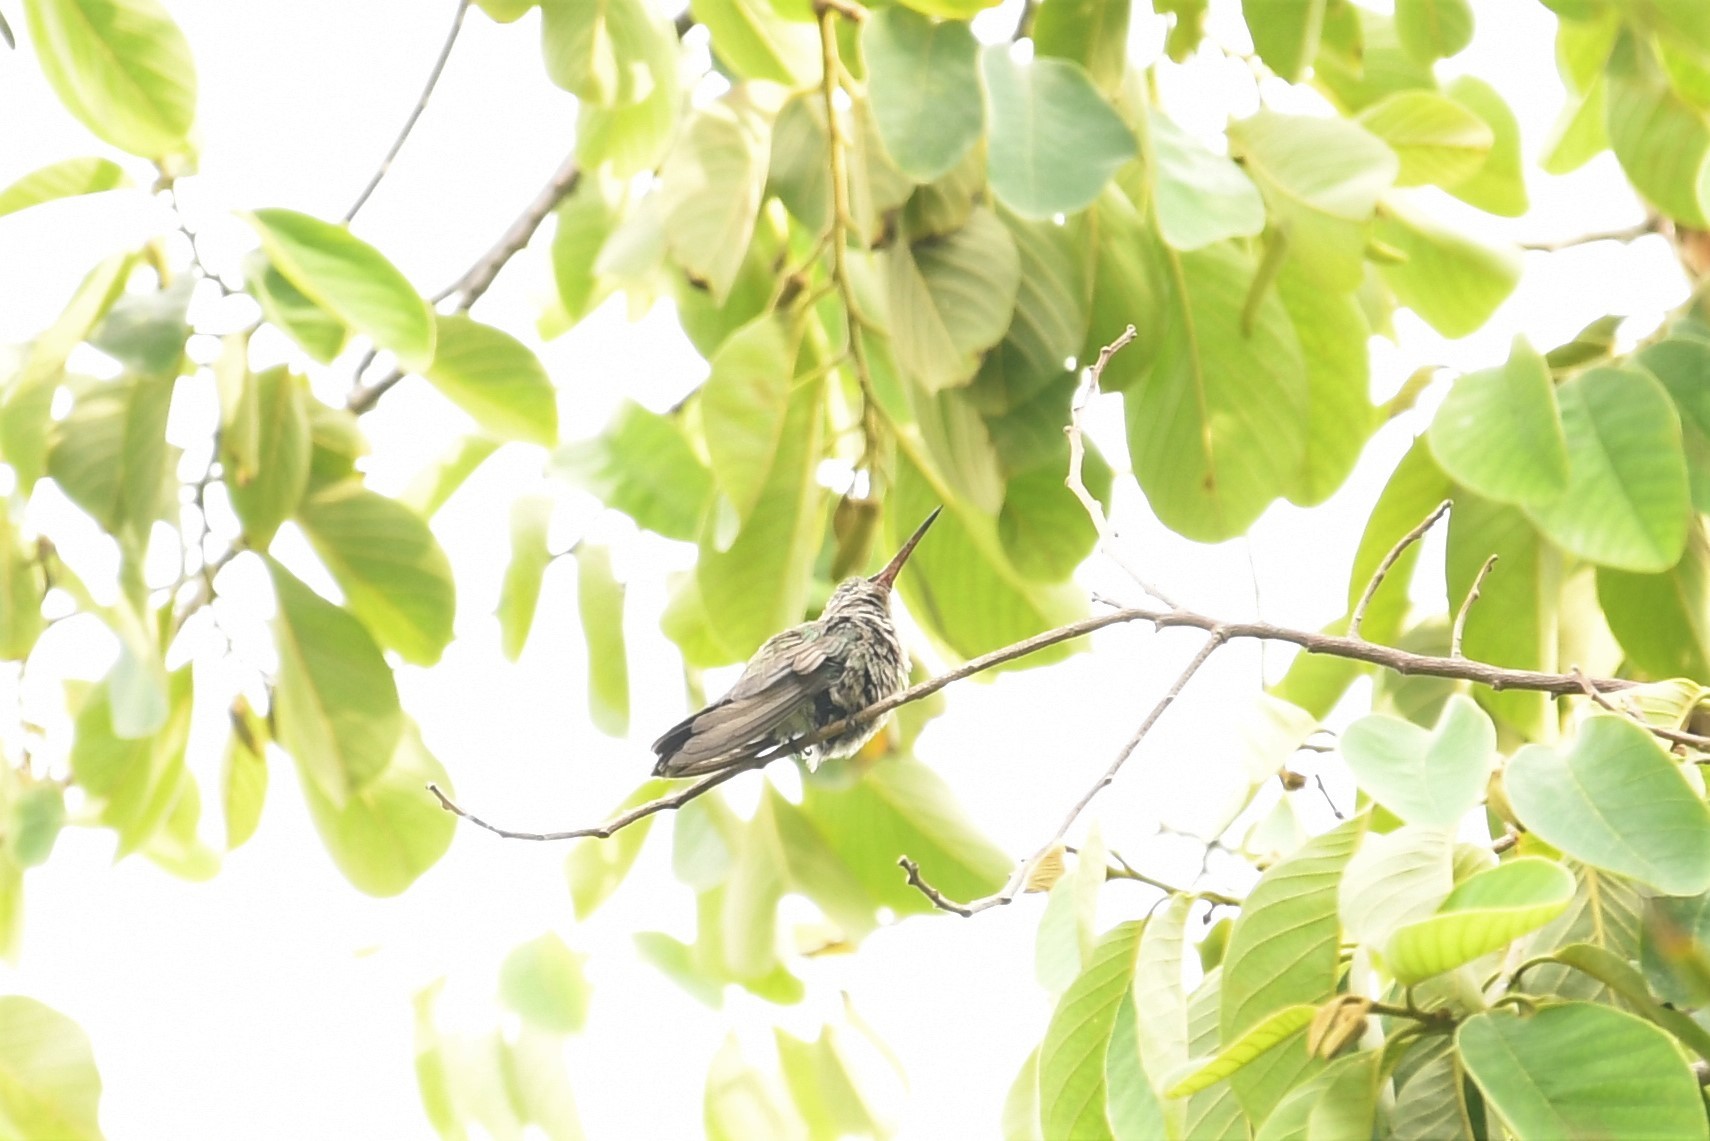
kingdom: Animalia
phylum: Chordata
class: Aves
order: Apodiformes
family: Trochilidae
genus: Cynanthus
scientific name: Cynanthus latirostris
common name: Broad-billed hummingbird
